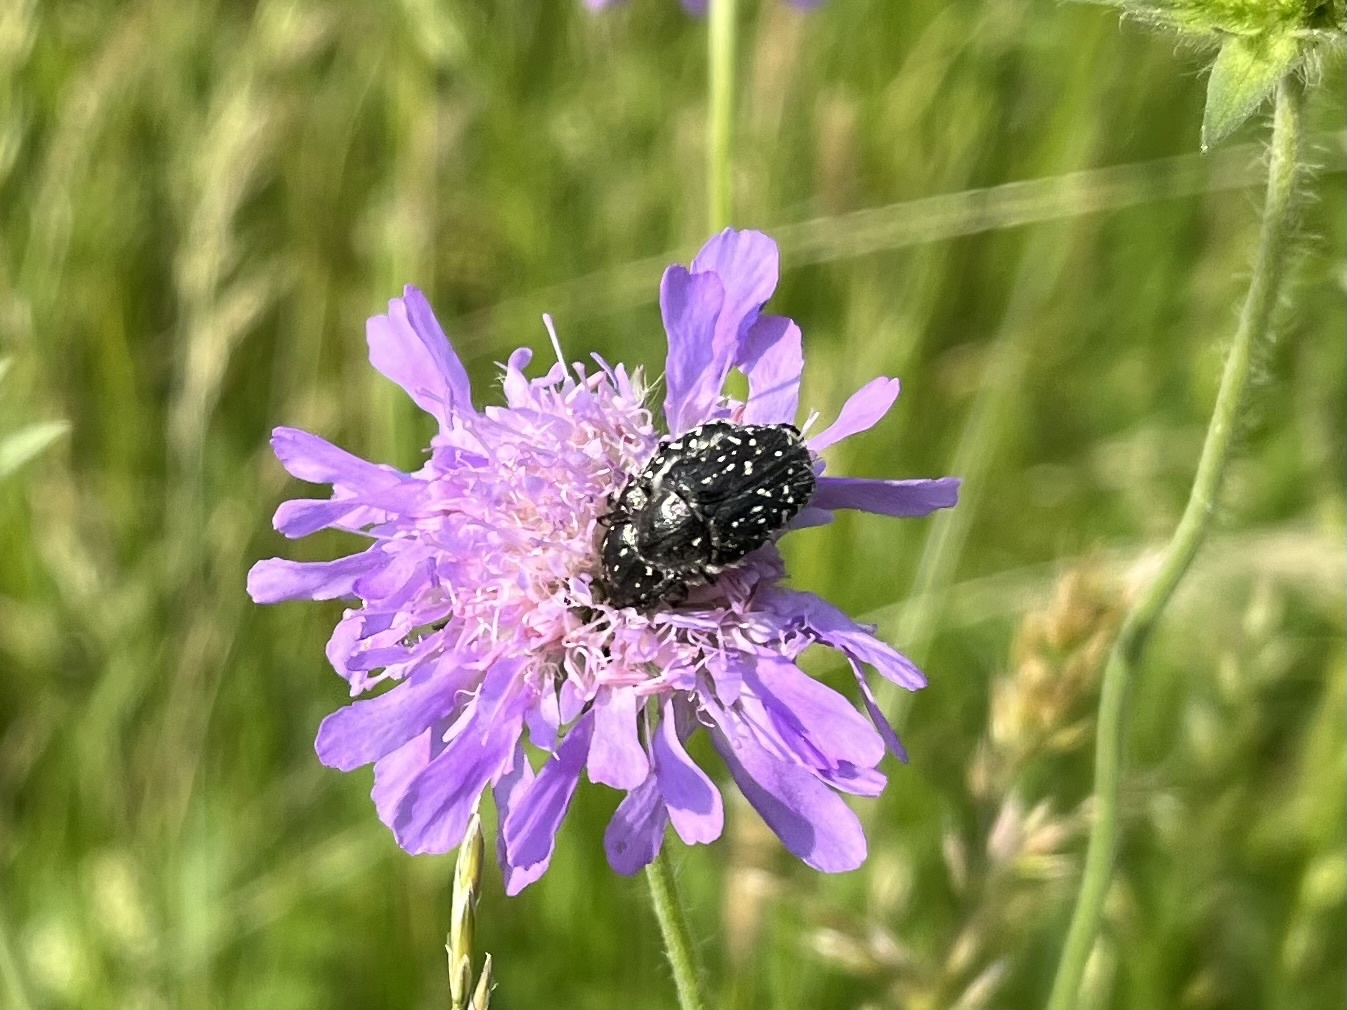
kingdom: Animalia
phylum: Arthropoda
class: Insecta
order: Coleoptera
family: Scarabaeidae
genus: Oxythyrea
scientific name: Oxythyrea funesta
